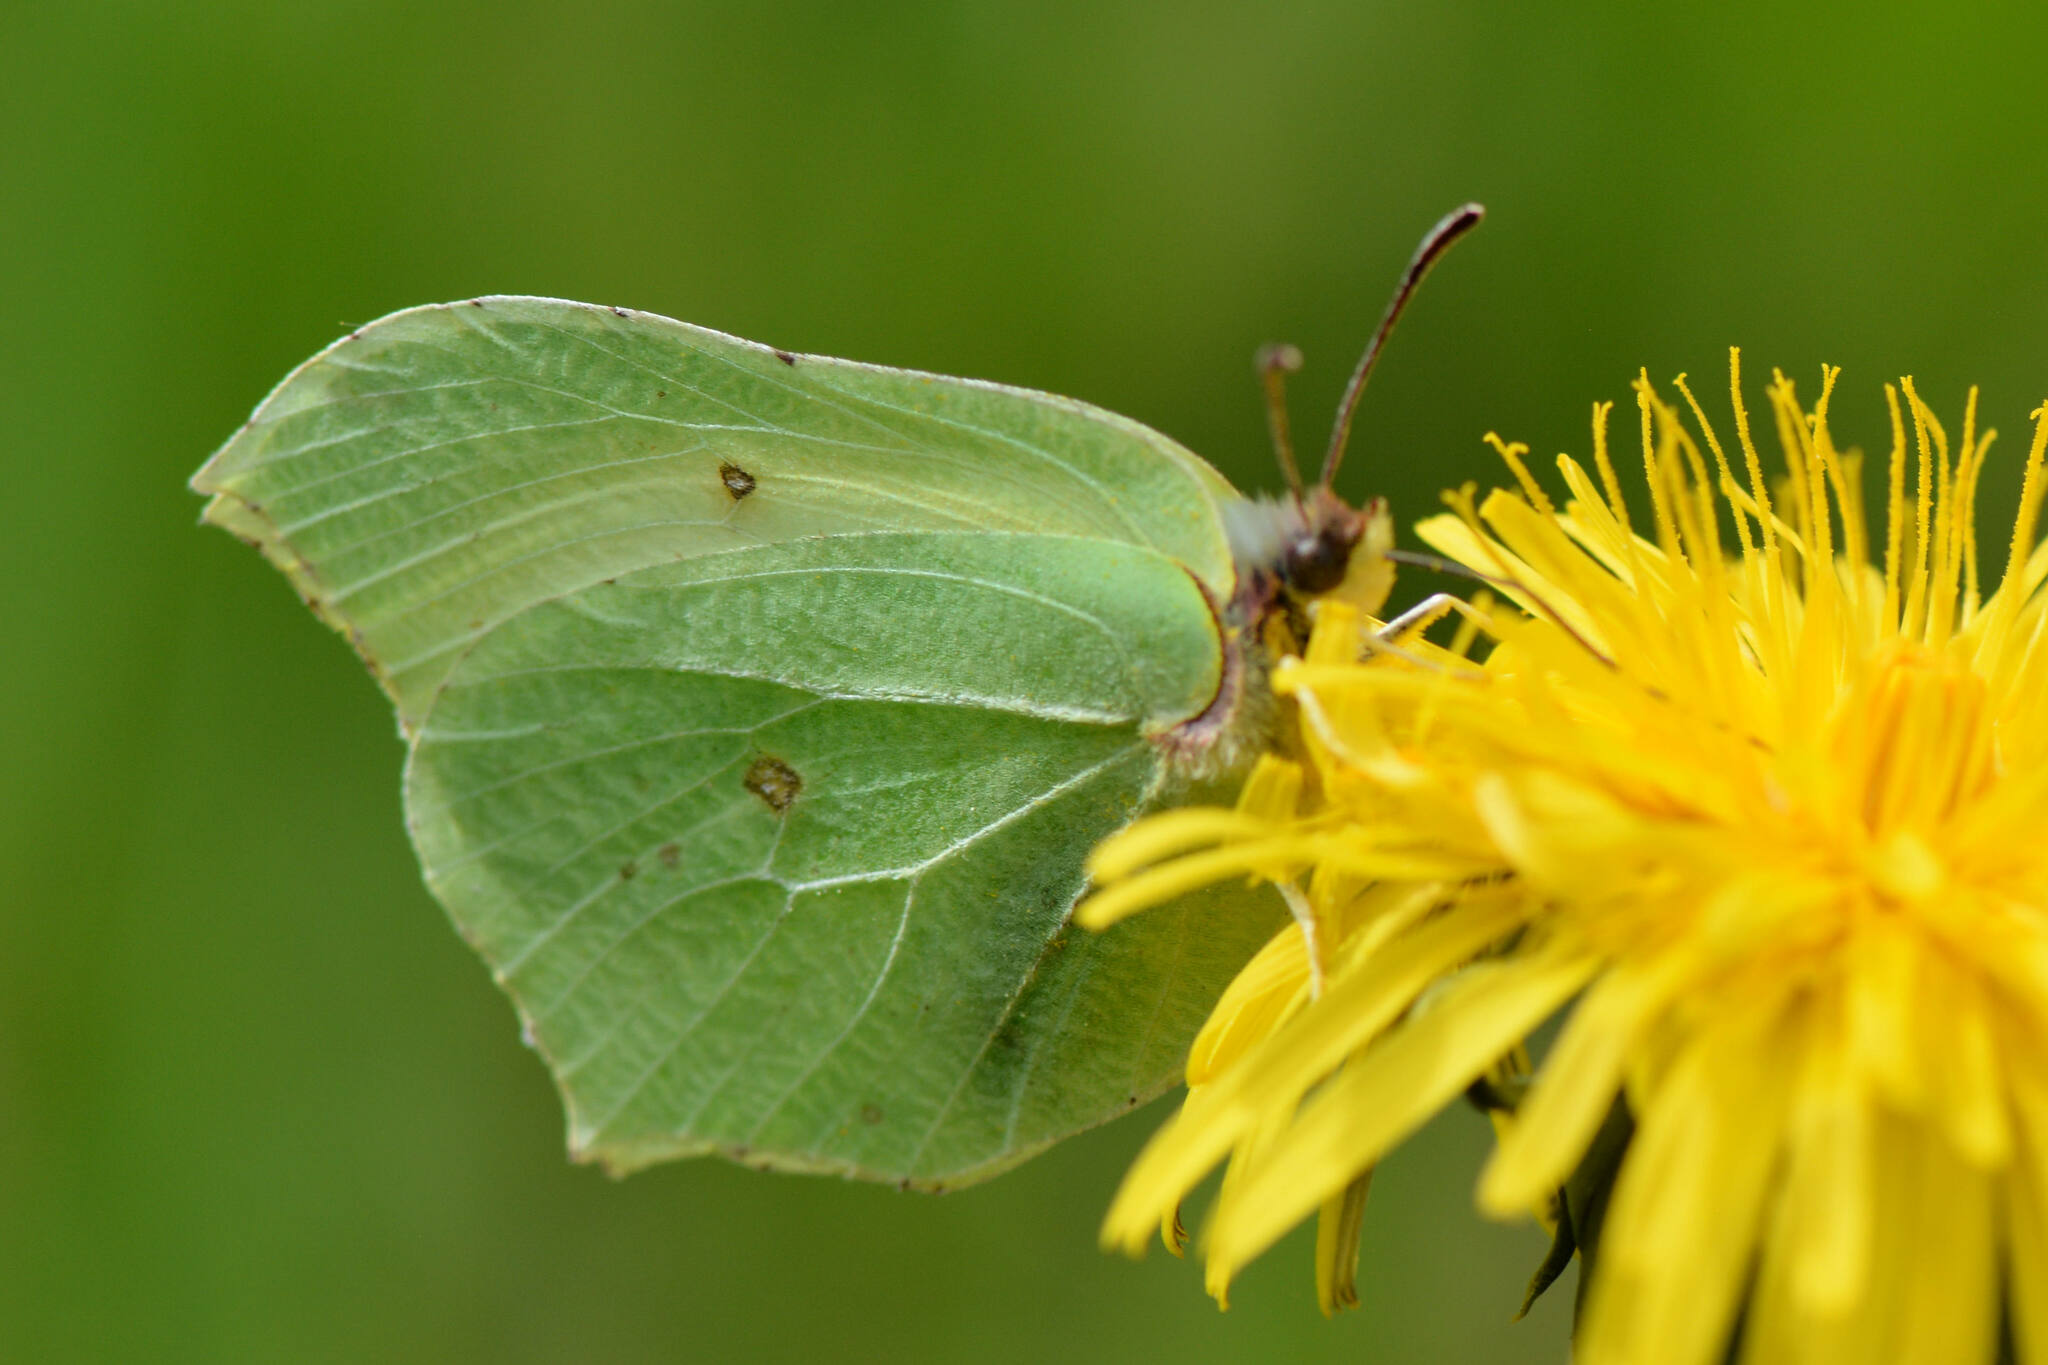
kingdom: Animalia
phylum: Arthropoda
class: Insecta
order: Lepidoptera
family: Pieridae
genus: Gonepteryx
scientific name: Gonepteryx rhamni
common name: Brimstone
